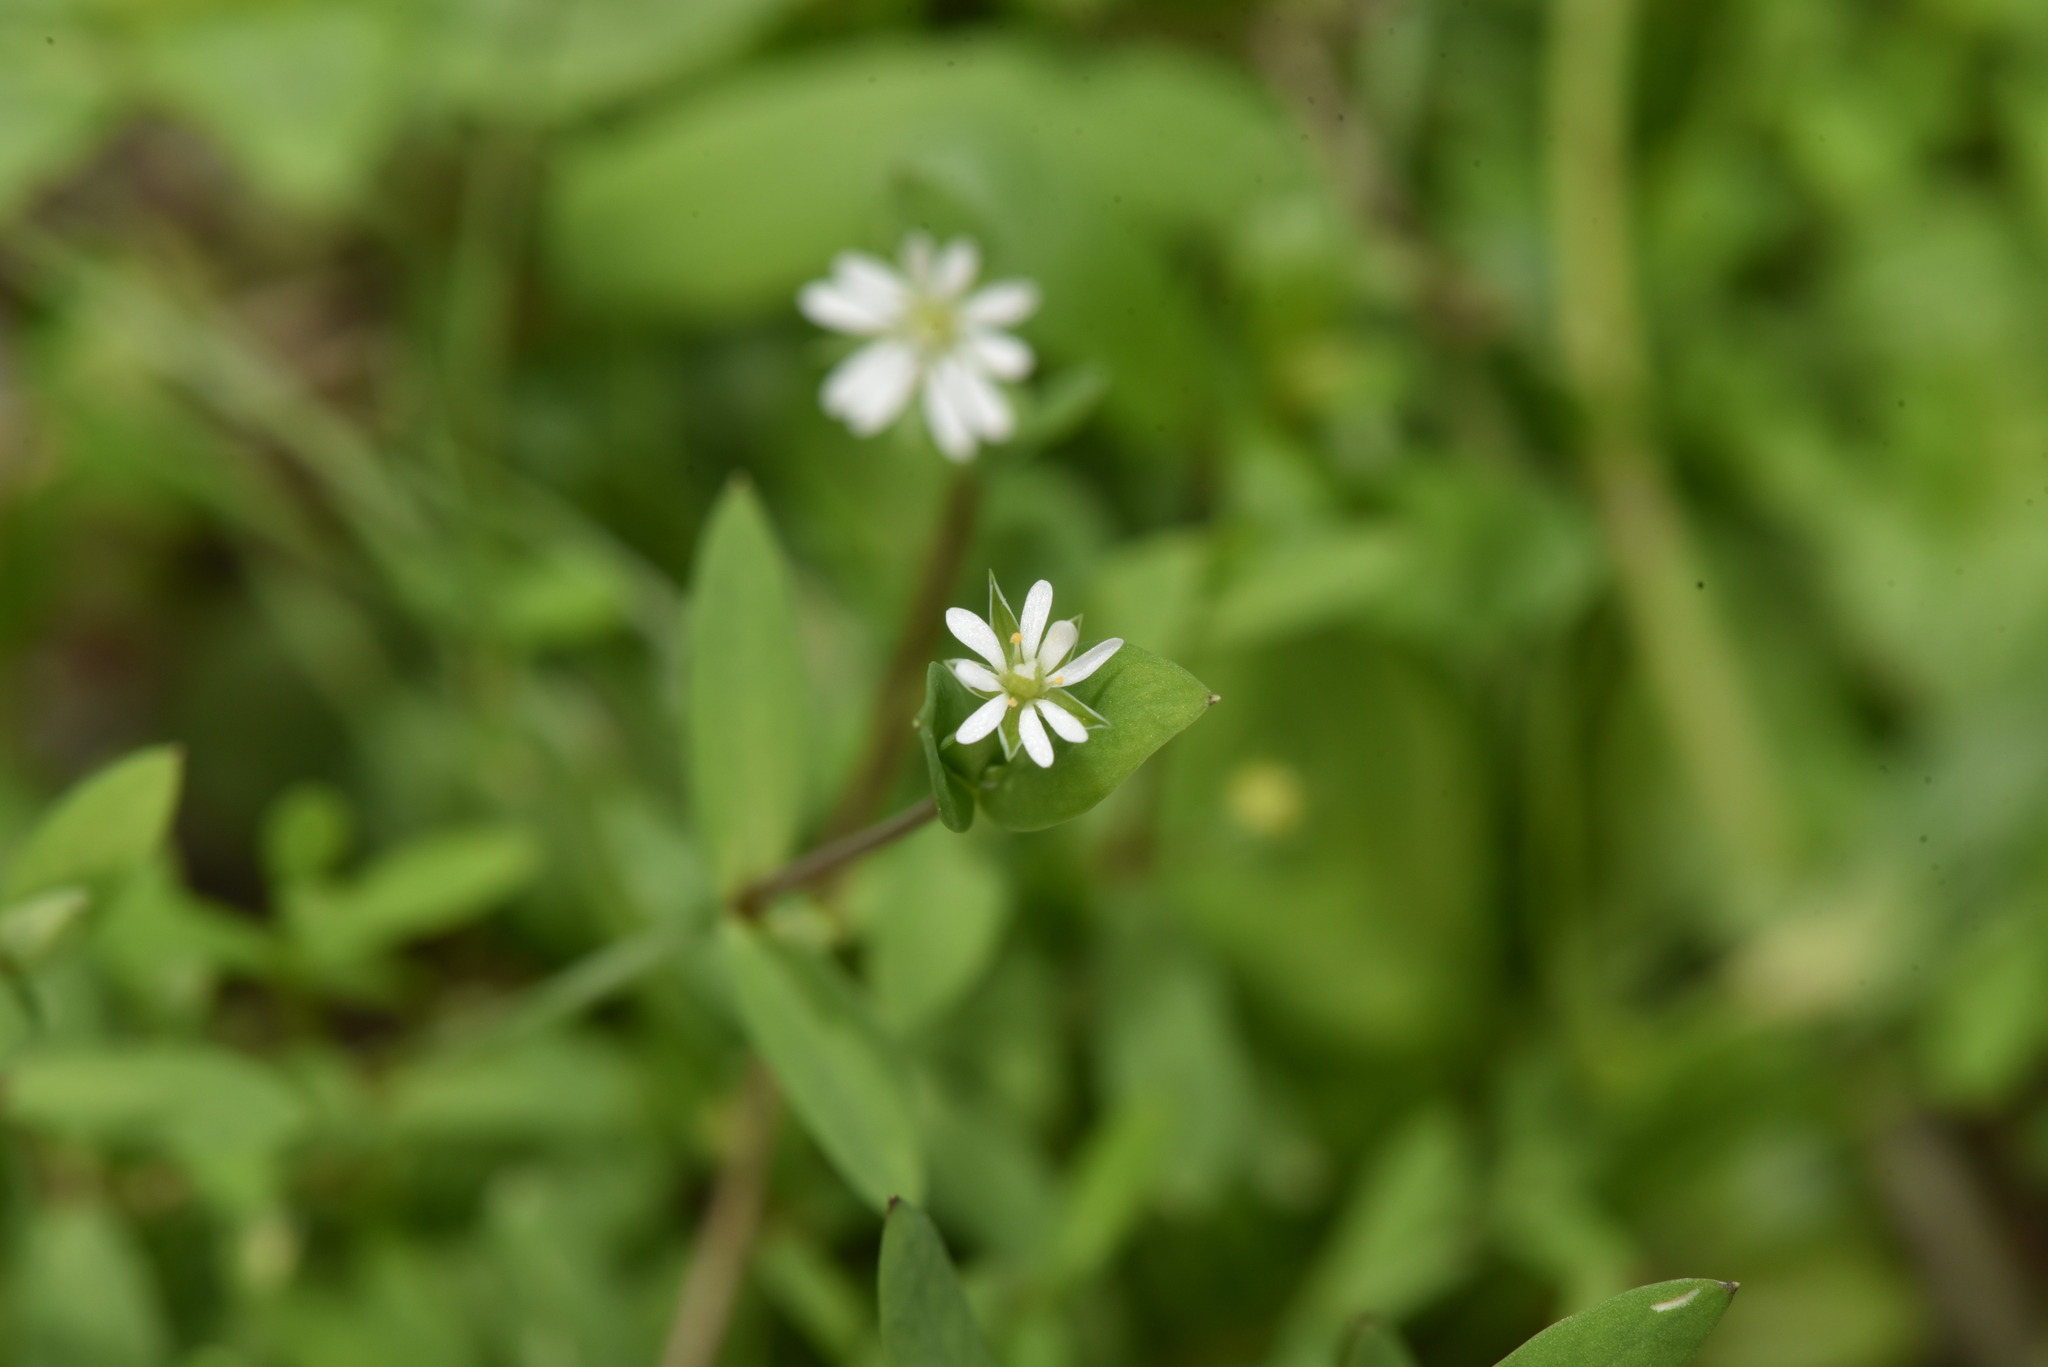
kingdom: Plantae
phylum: Tracheophyta
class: Magnoliopsida
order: Caryophyllales
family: Caryophyllaceae
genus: Stellaria
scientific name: Stellaria alsine
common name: Bog stitchwort
